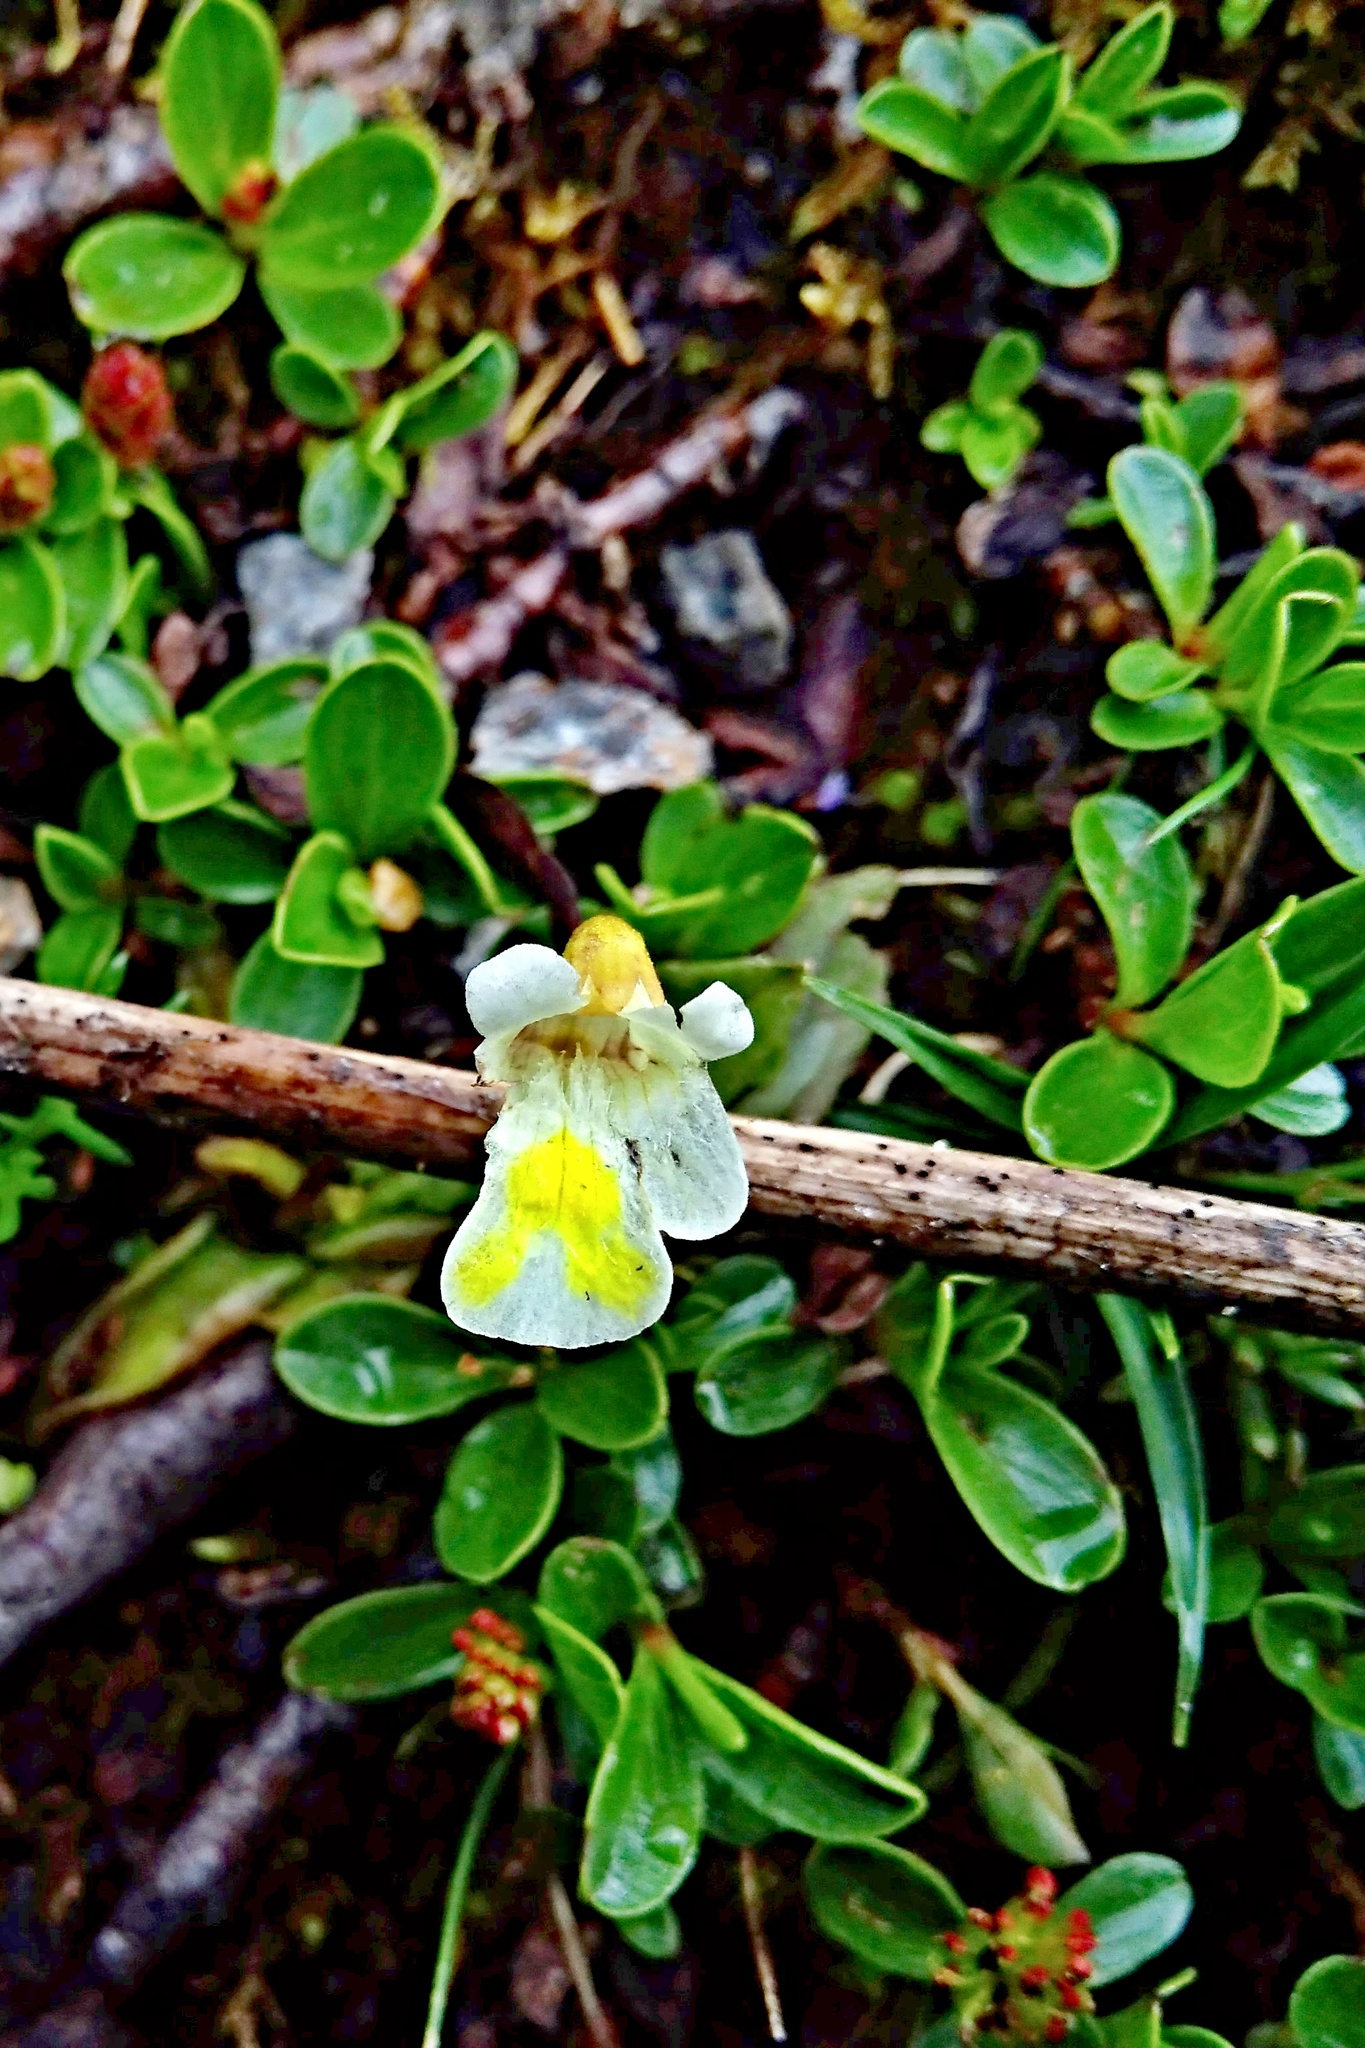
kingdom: Plantae
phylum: Tracheophyta
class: Magnoliopsida
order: Lamiales
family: Lentibulariaceae
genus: Pinguicula
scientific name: Pinguicula alpina
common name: Alpine butterwort
